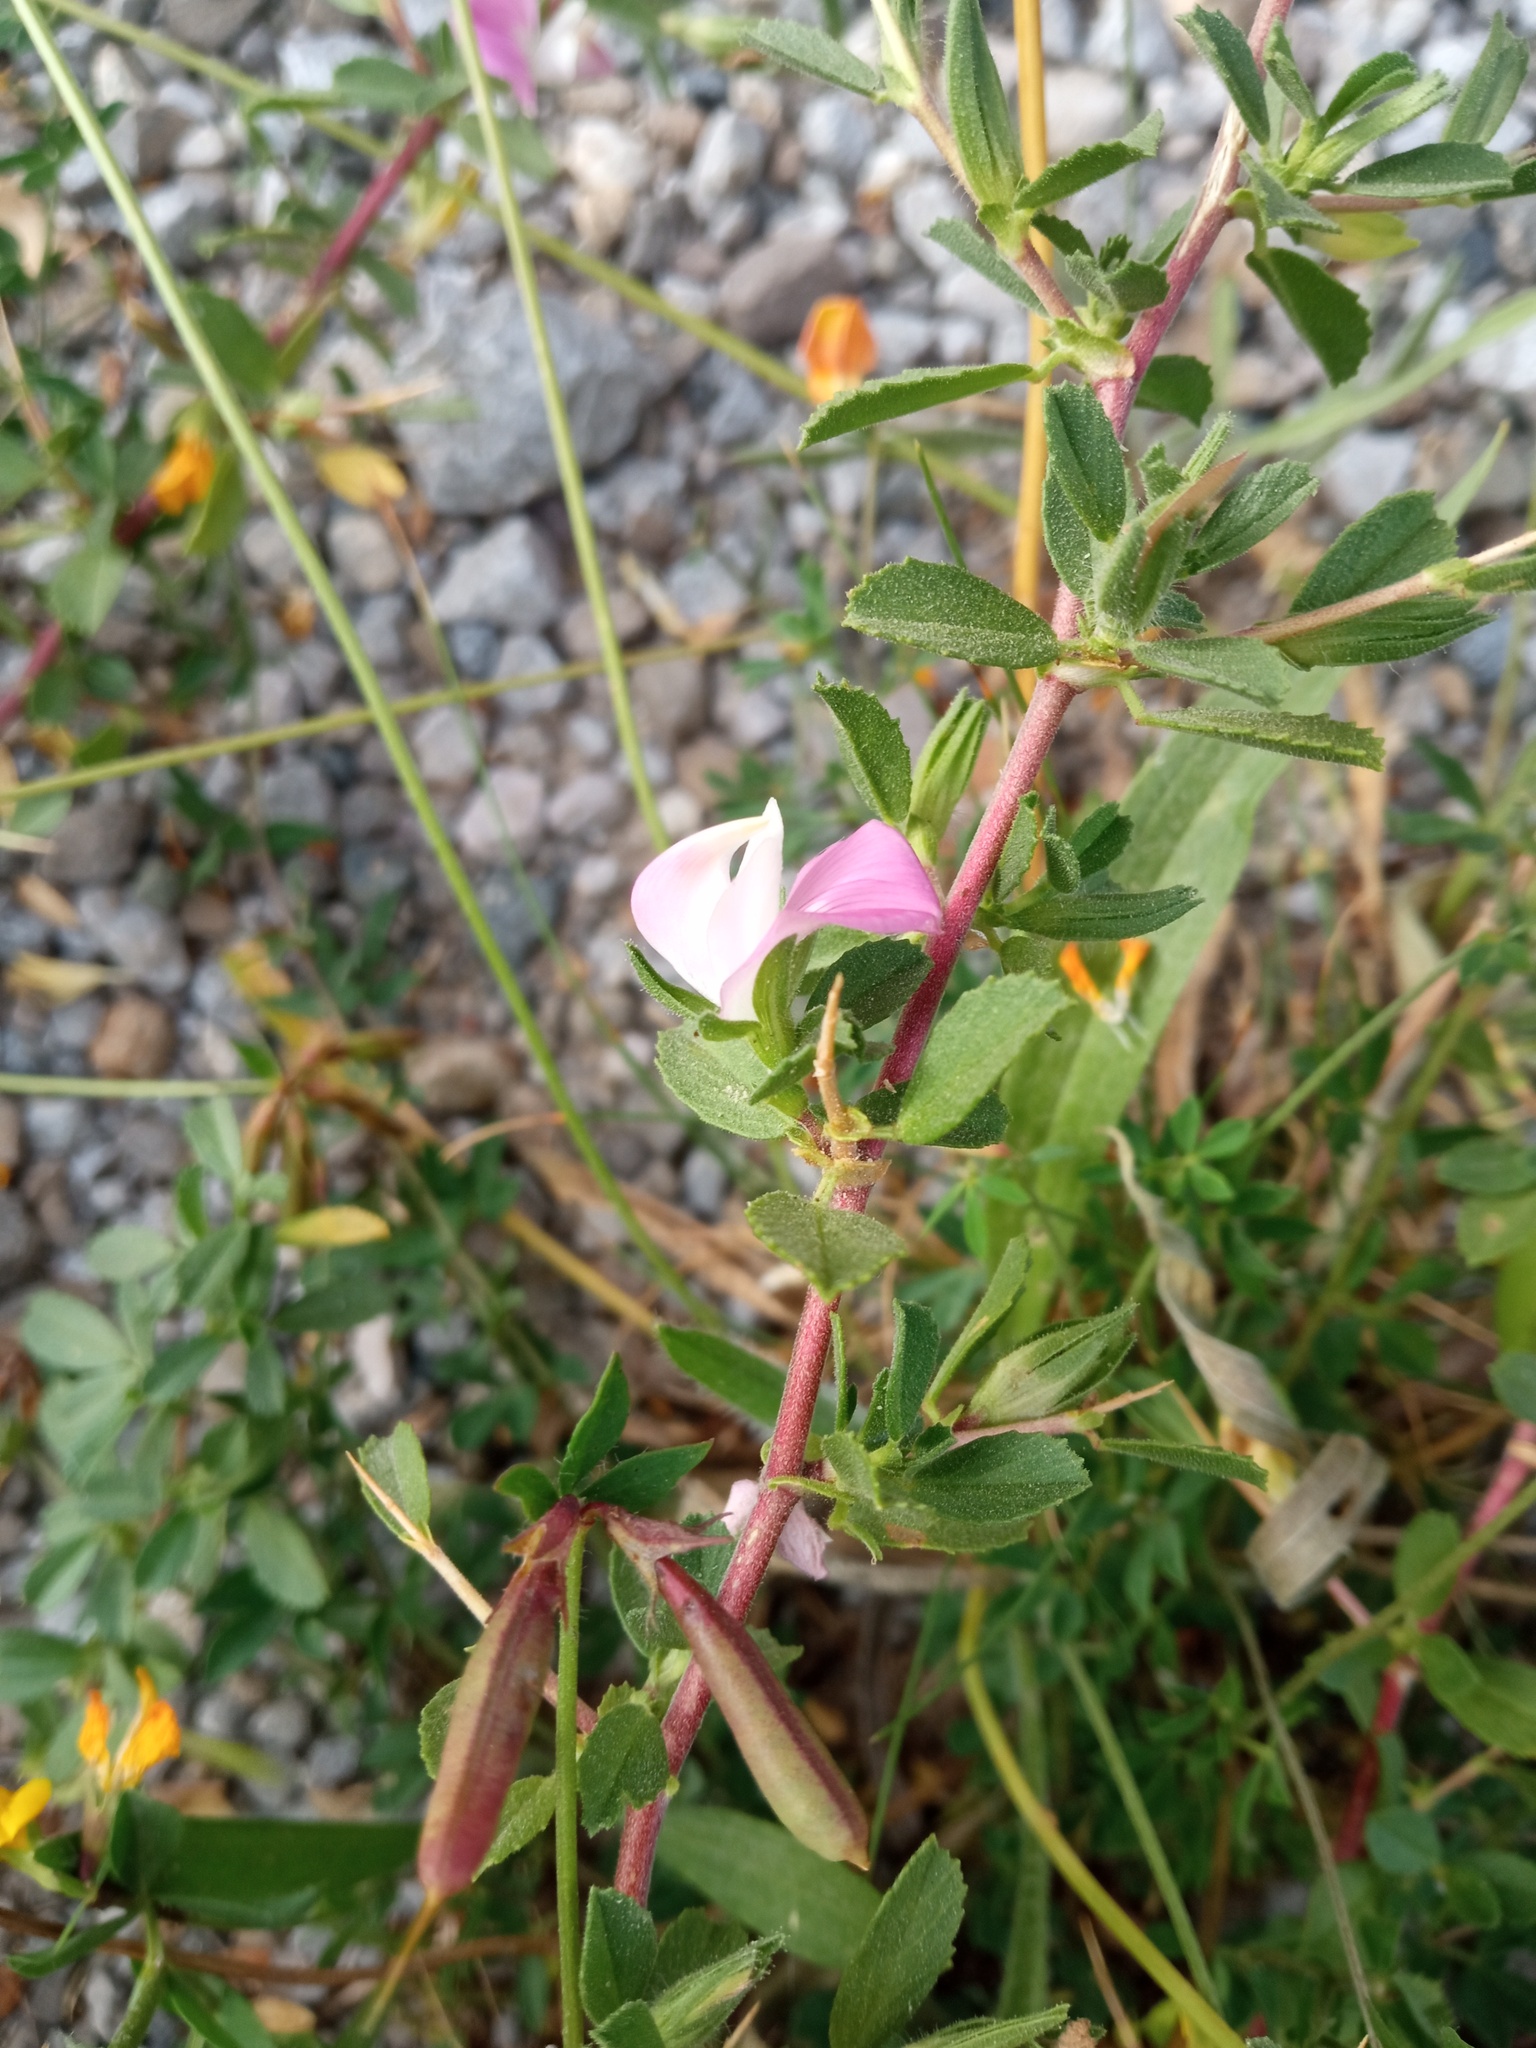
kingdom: Plantae
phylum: Tracheophyta
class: Magnoliopsida
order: Fabales
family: Fabaceae
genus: Ononis
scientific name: Ononis spinosa
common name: Spiny restharrow
